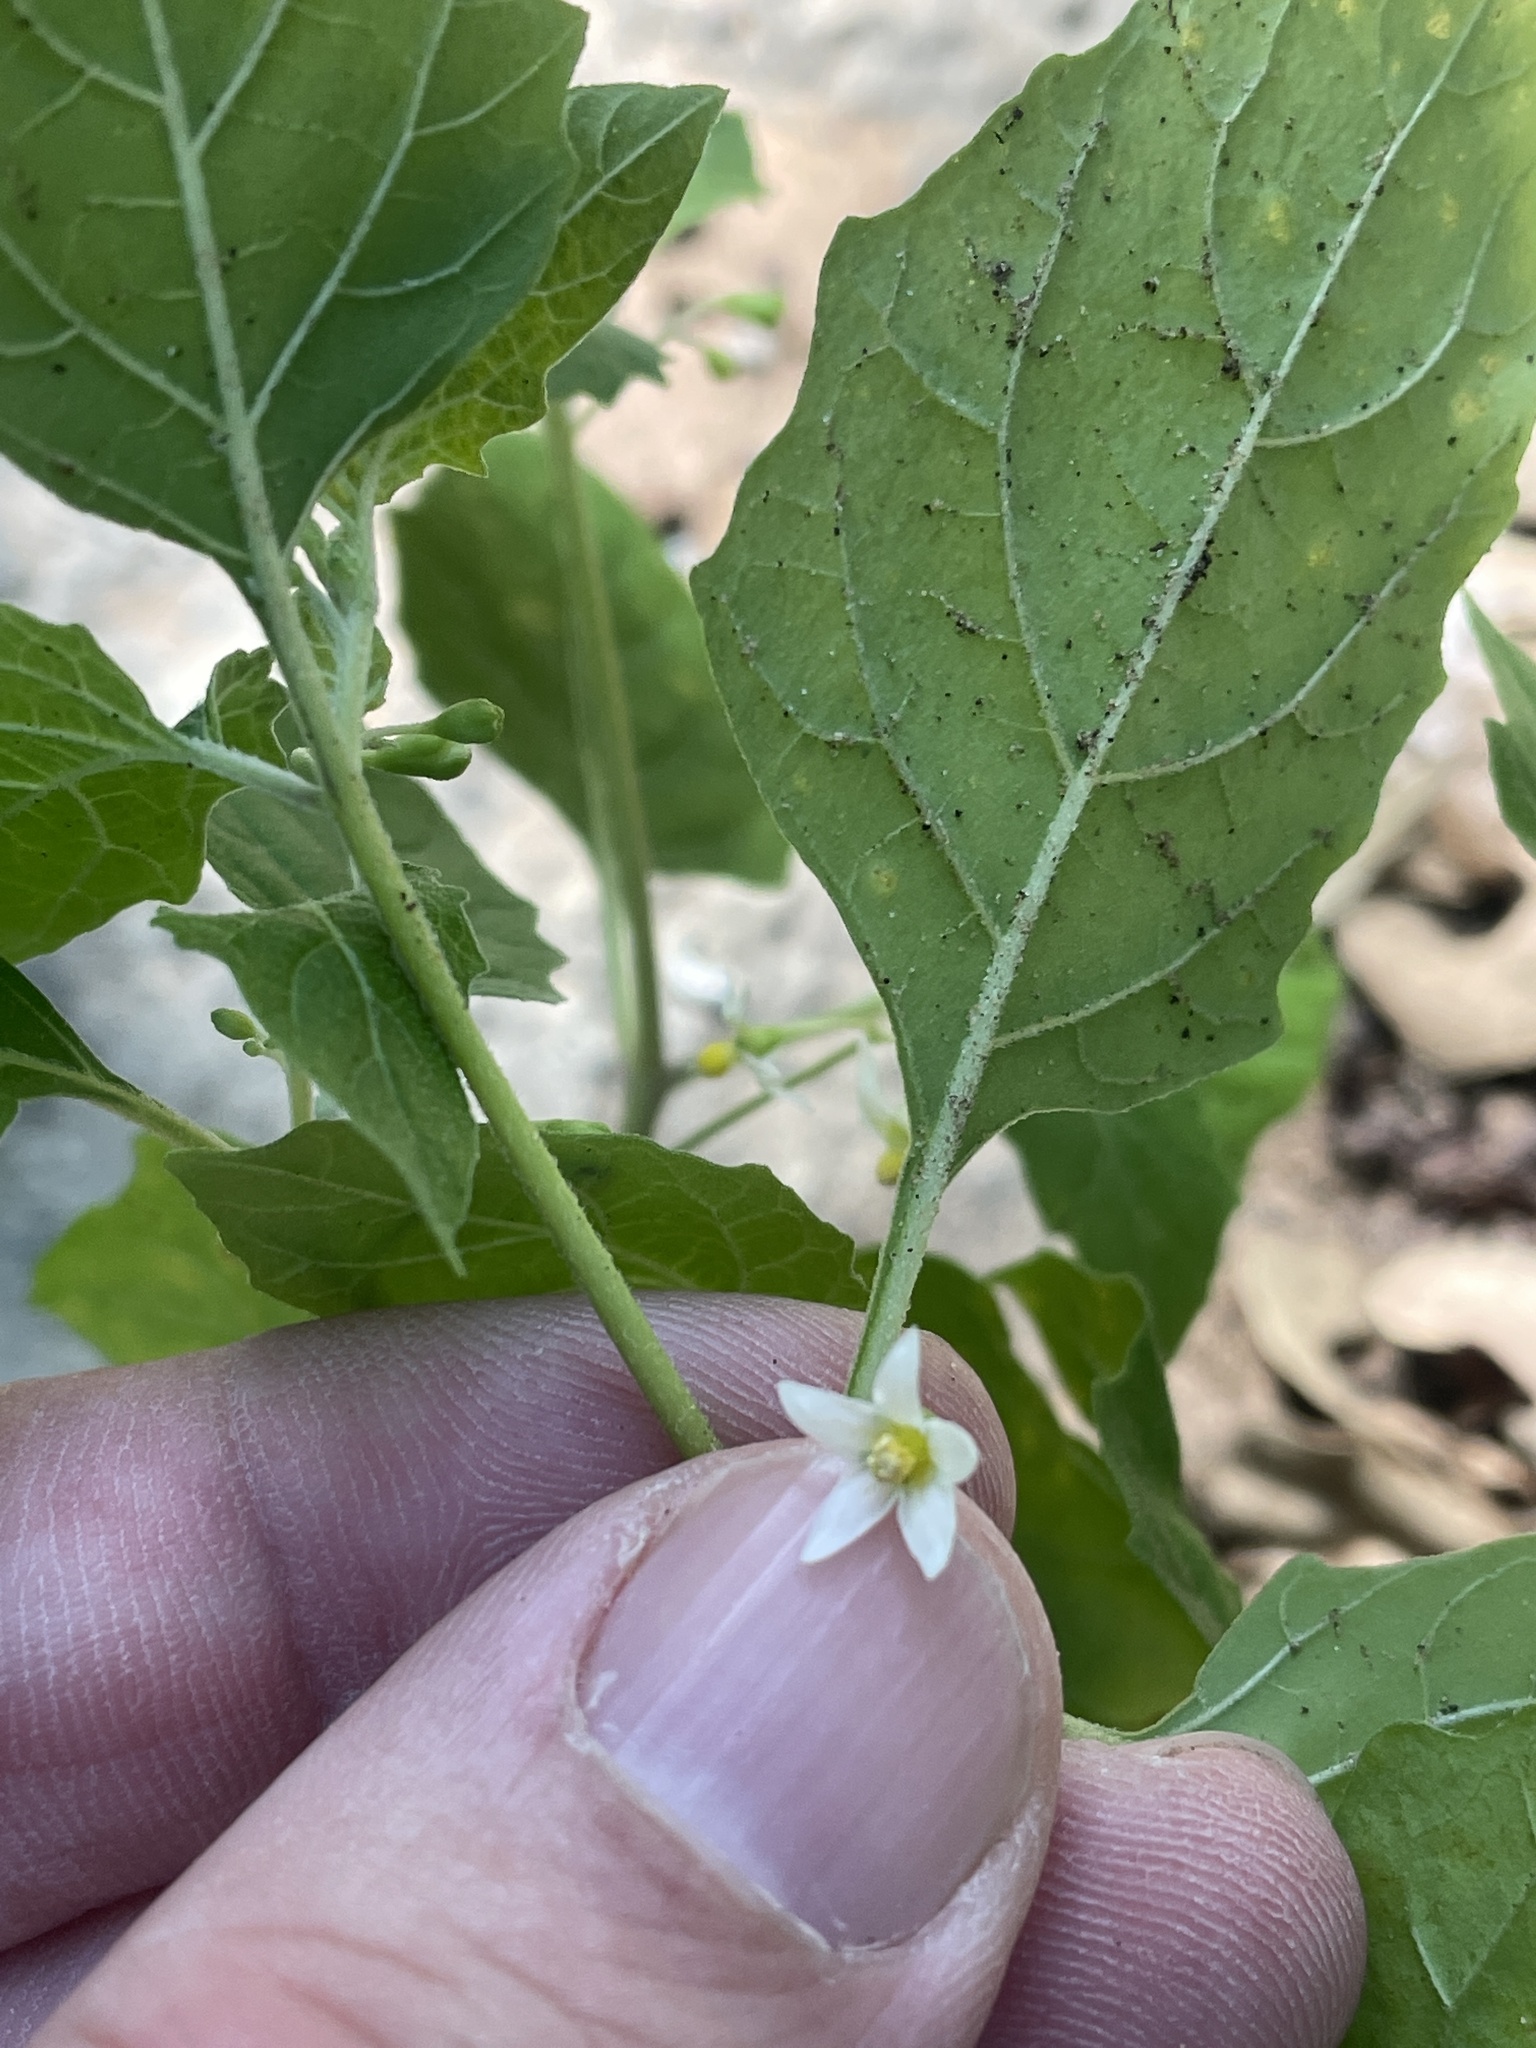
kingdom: Plantae
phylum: Tracheophyta
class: Magnoliopsida
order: Solanales
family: Solanaceae
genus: Solanum
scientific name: Solanum emulans
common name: Eastern black nightshade
